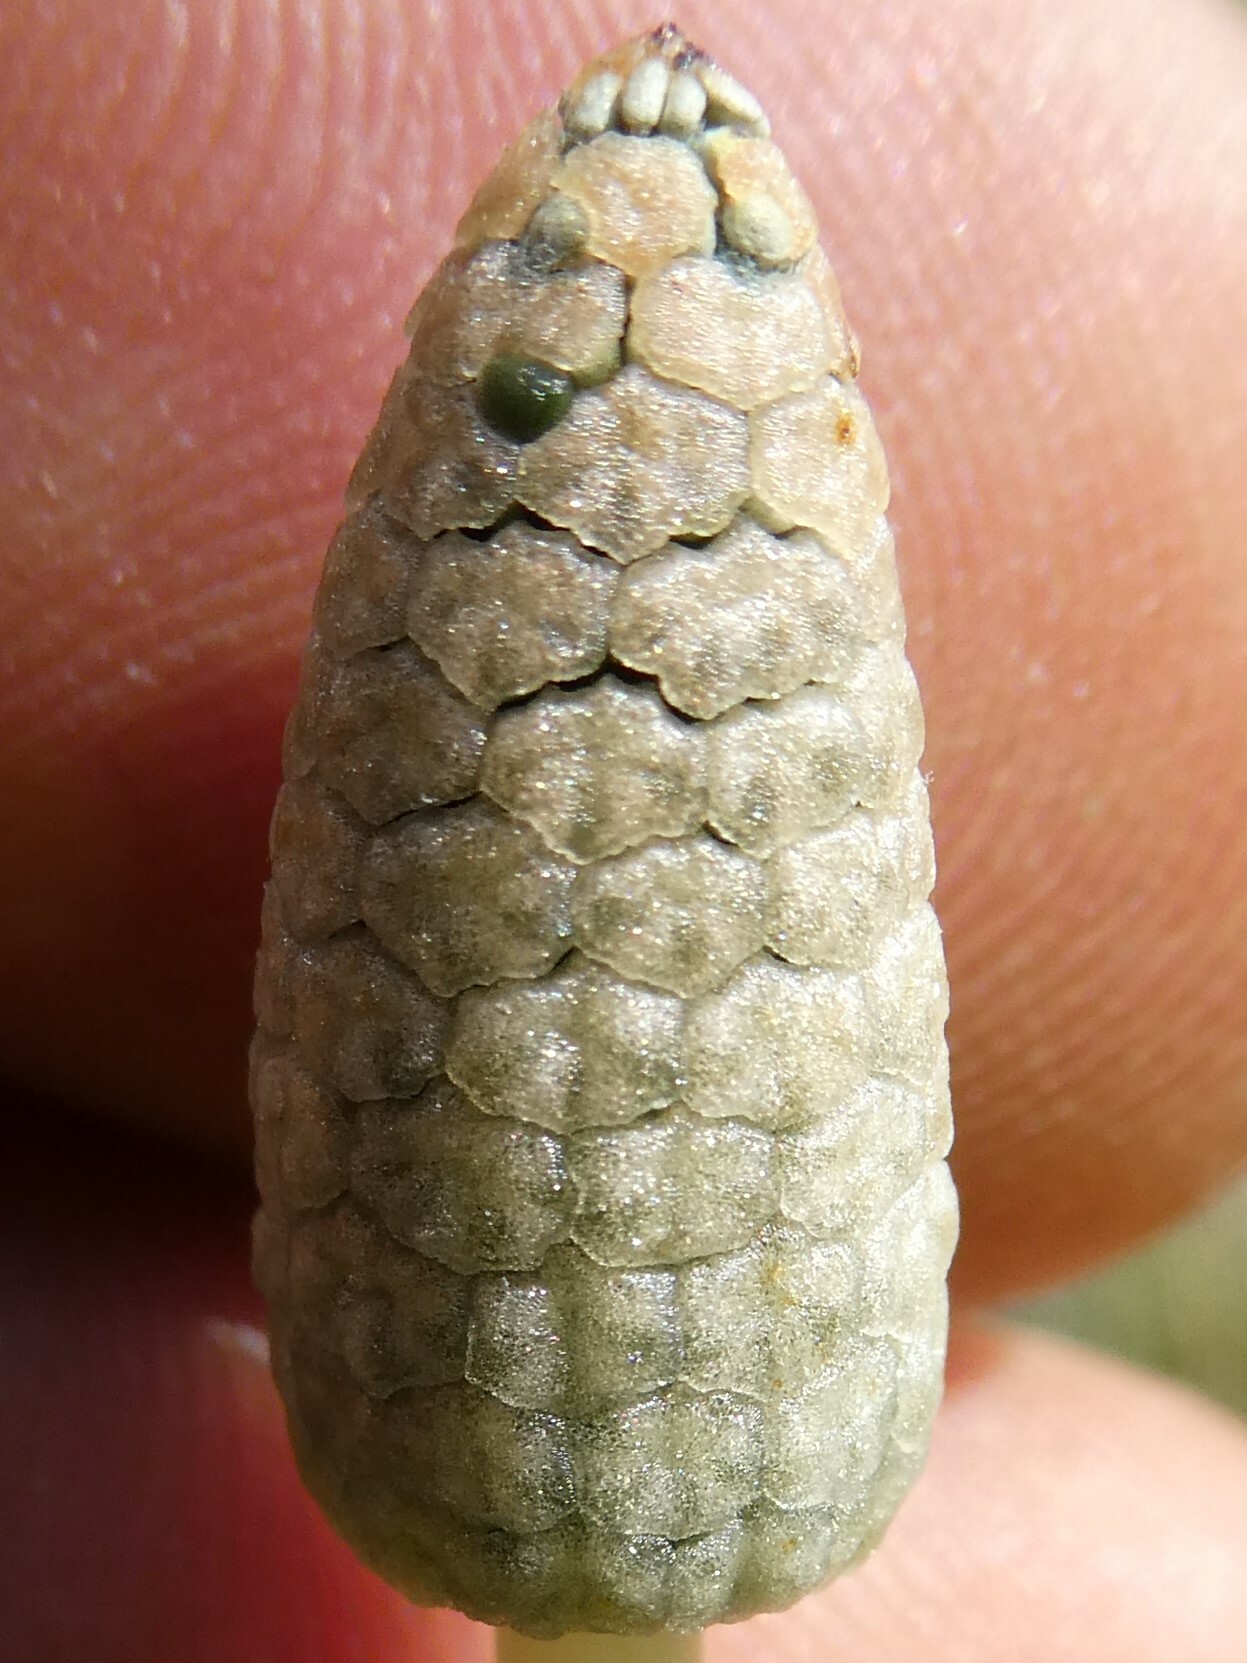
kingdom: Plantae
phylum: Tracheophyta
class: Polypodiopsida
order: Equisetales
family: Equisetaceae
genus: Equisetum
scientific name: Equisetum sylvaticum
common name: Wood horsetail
